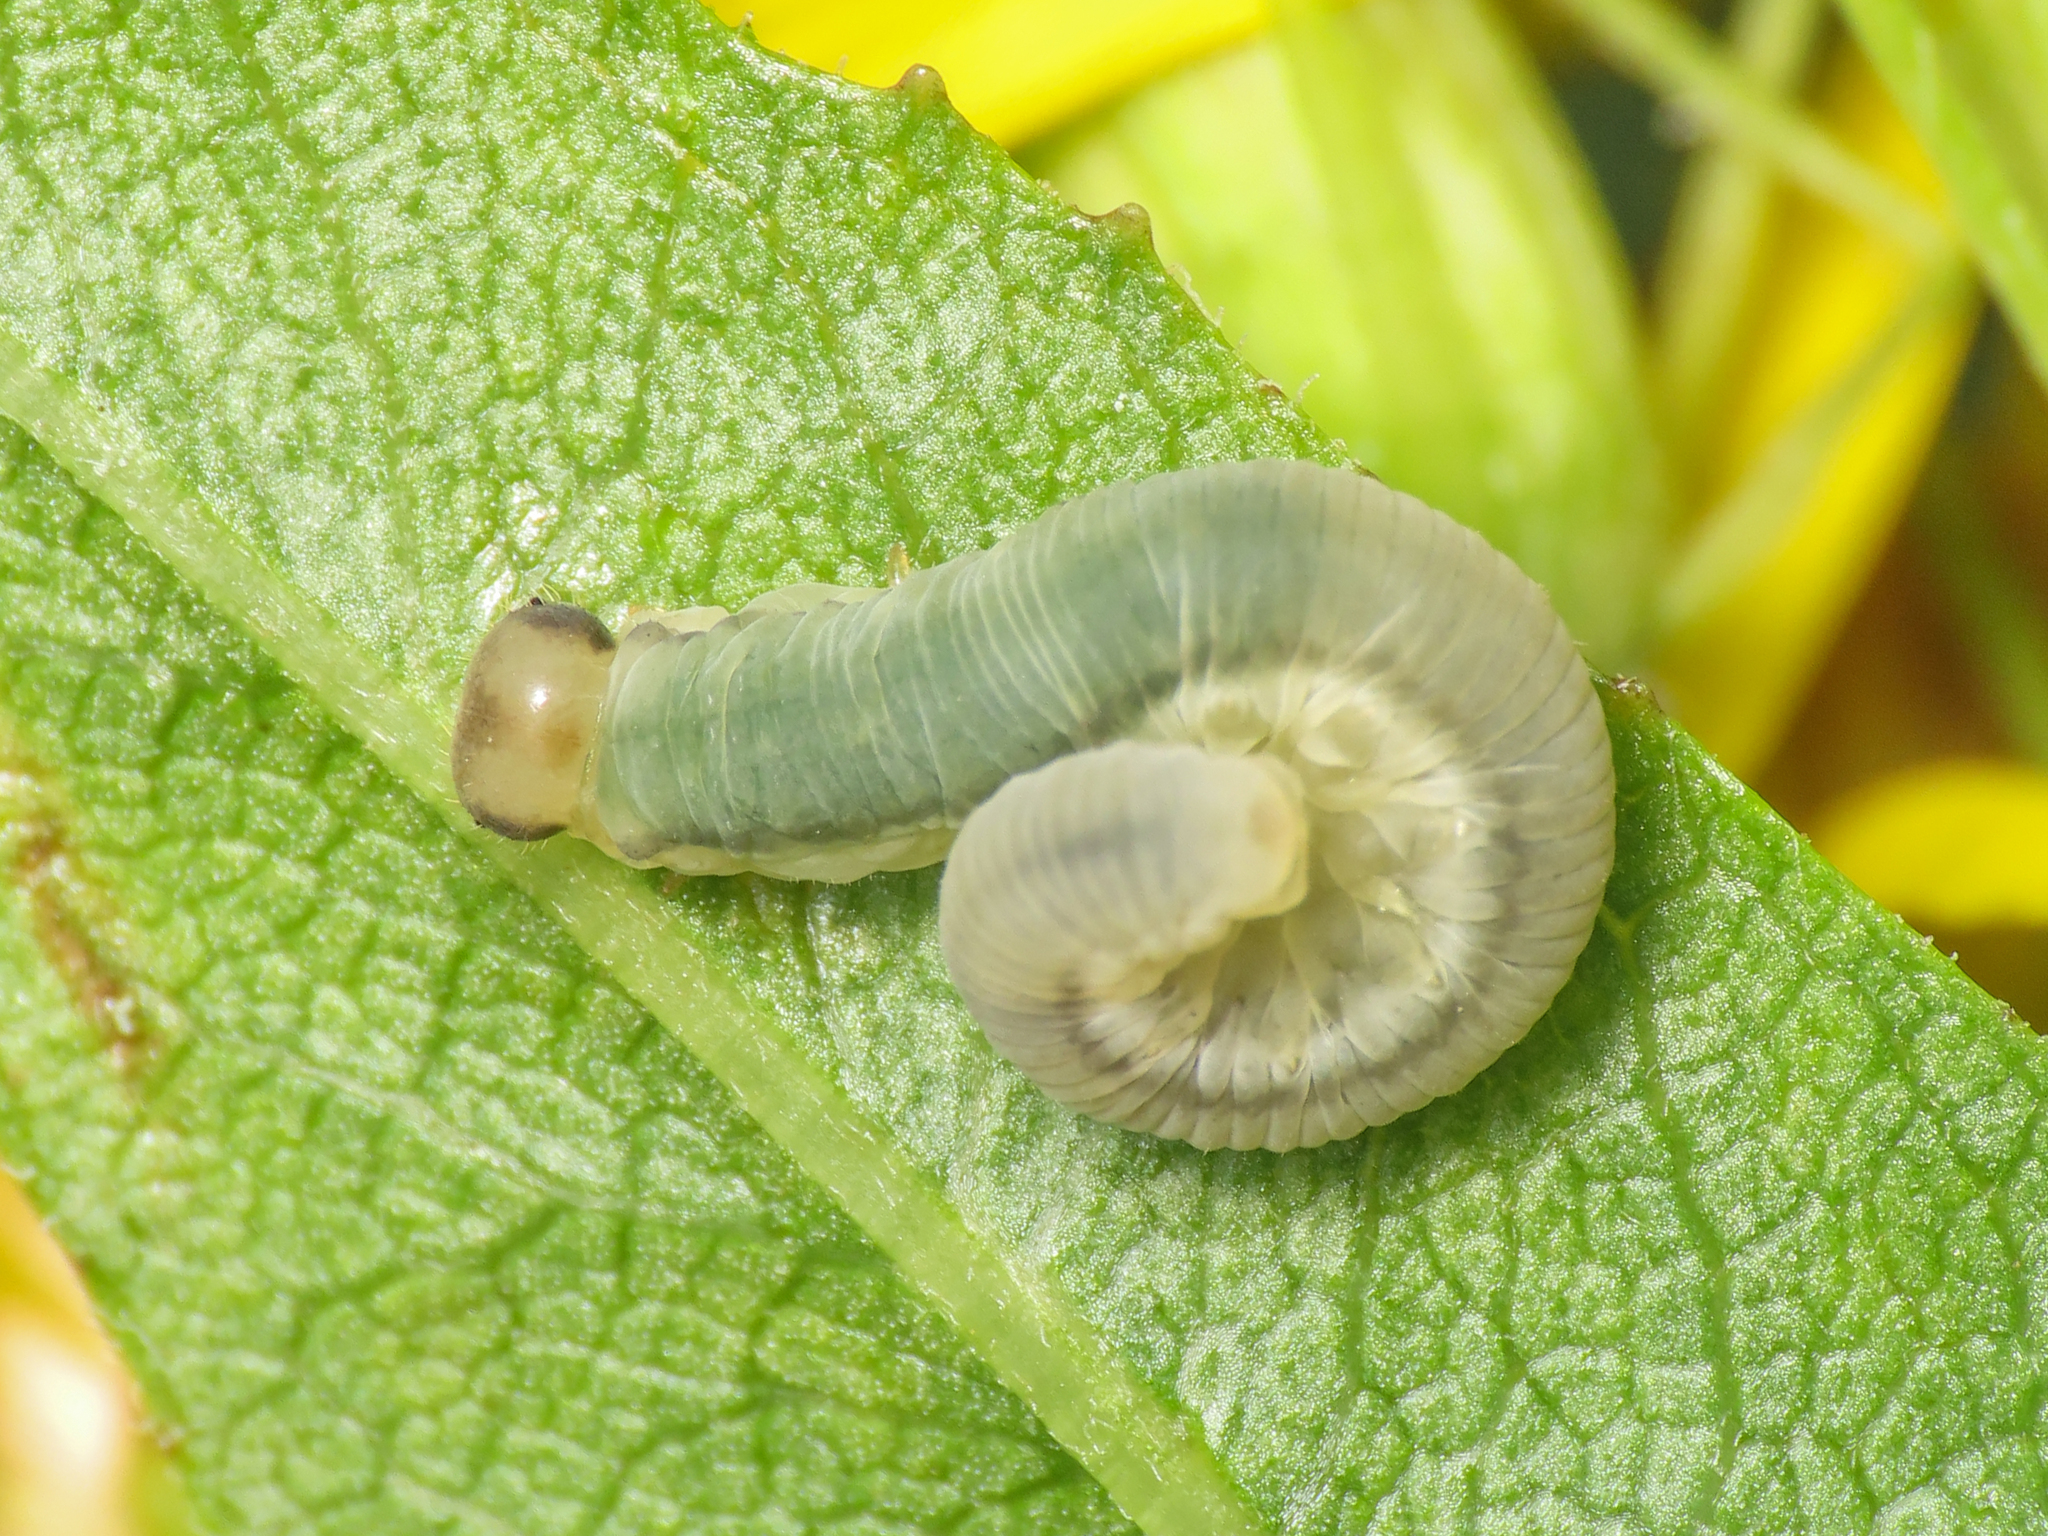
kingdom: Animalia
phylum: Arthropoda
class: Insecta
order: Hymenoptera
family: Tenthredinidae
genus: Pachyprotasis
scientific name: Pachyprotasis rapae
